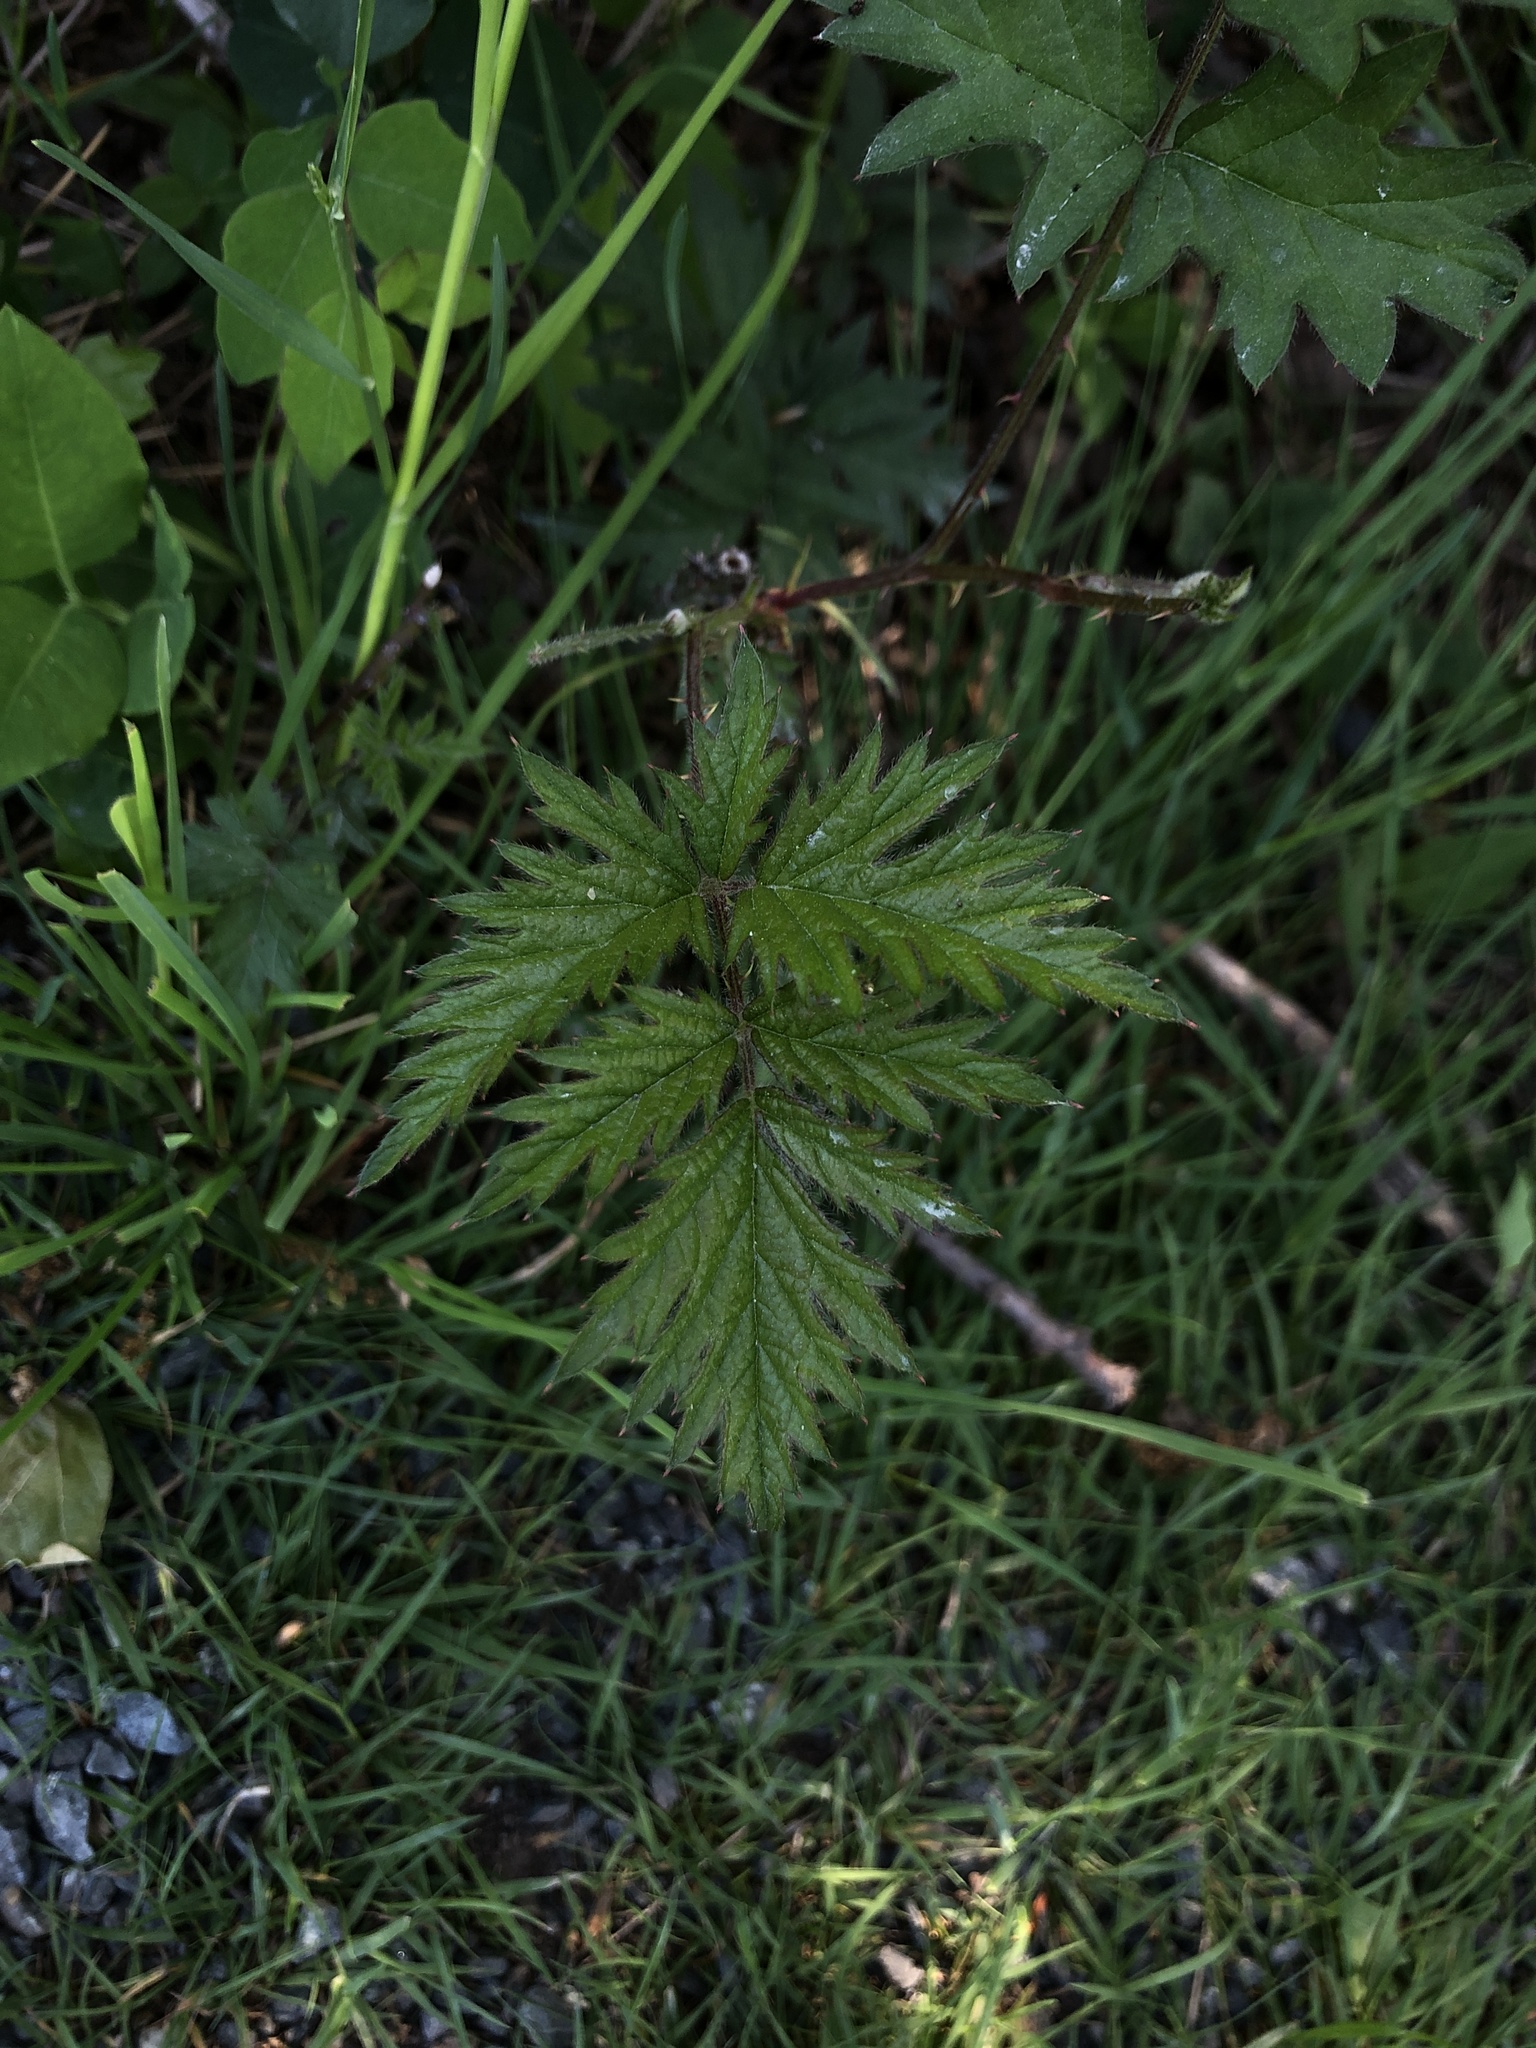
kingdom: Plantae
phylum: Tracheophyta
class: Magnoliopsida
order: Rosales
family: Rosaceae
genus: Rubus
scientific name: Rubus laciniatus
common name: Evergreen blackberry
